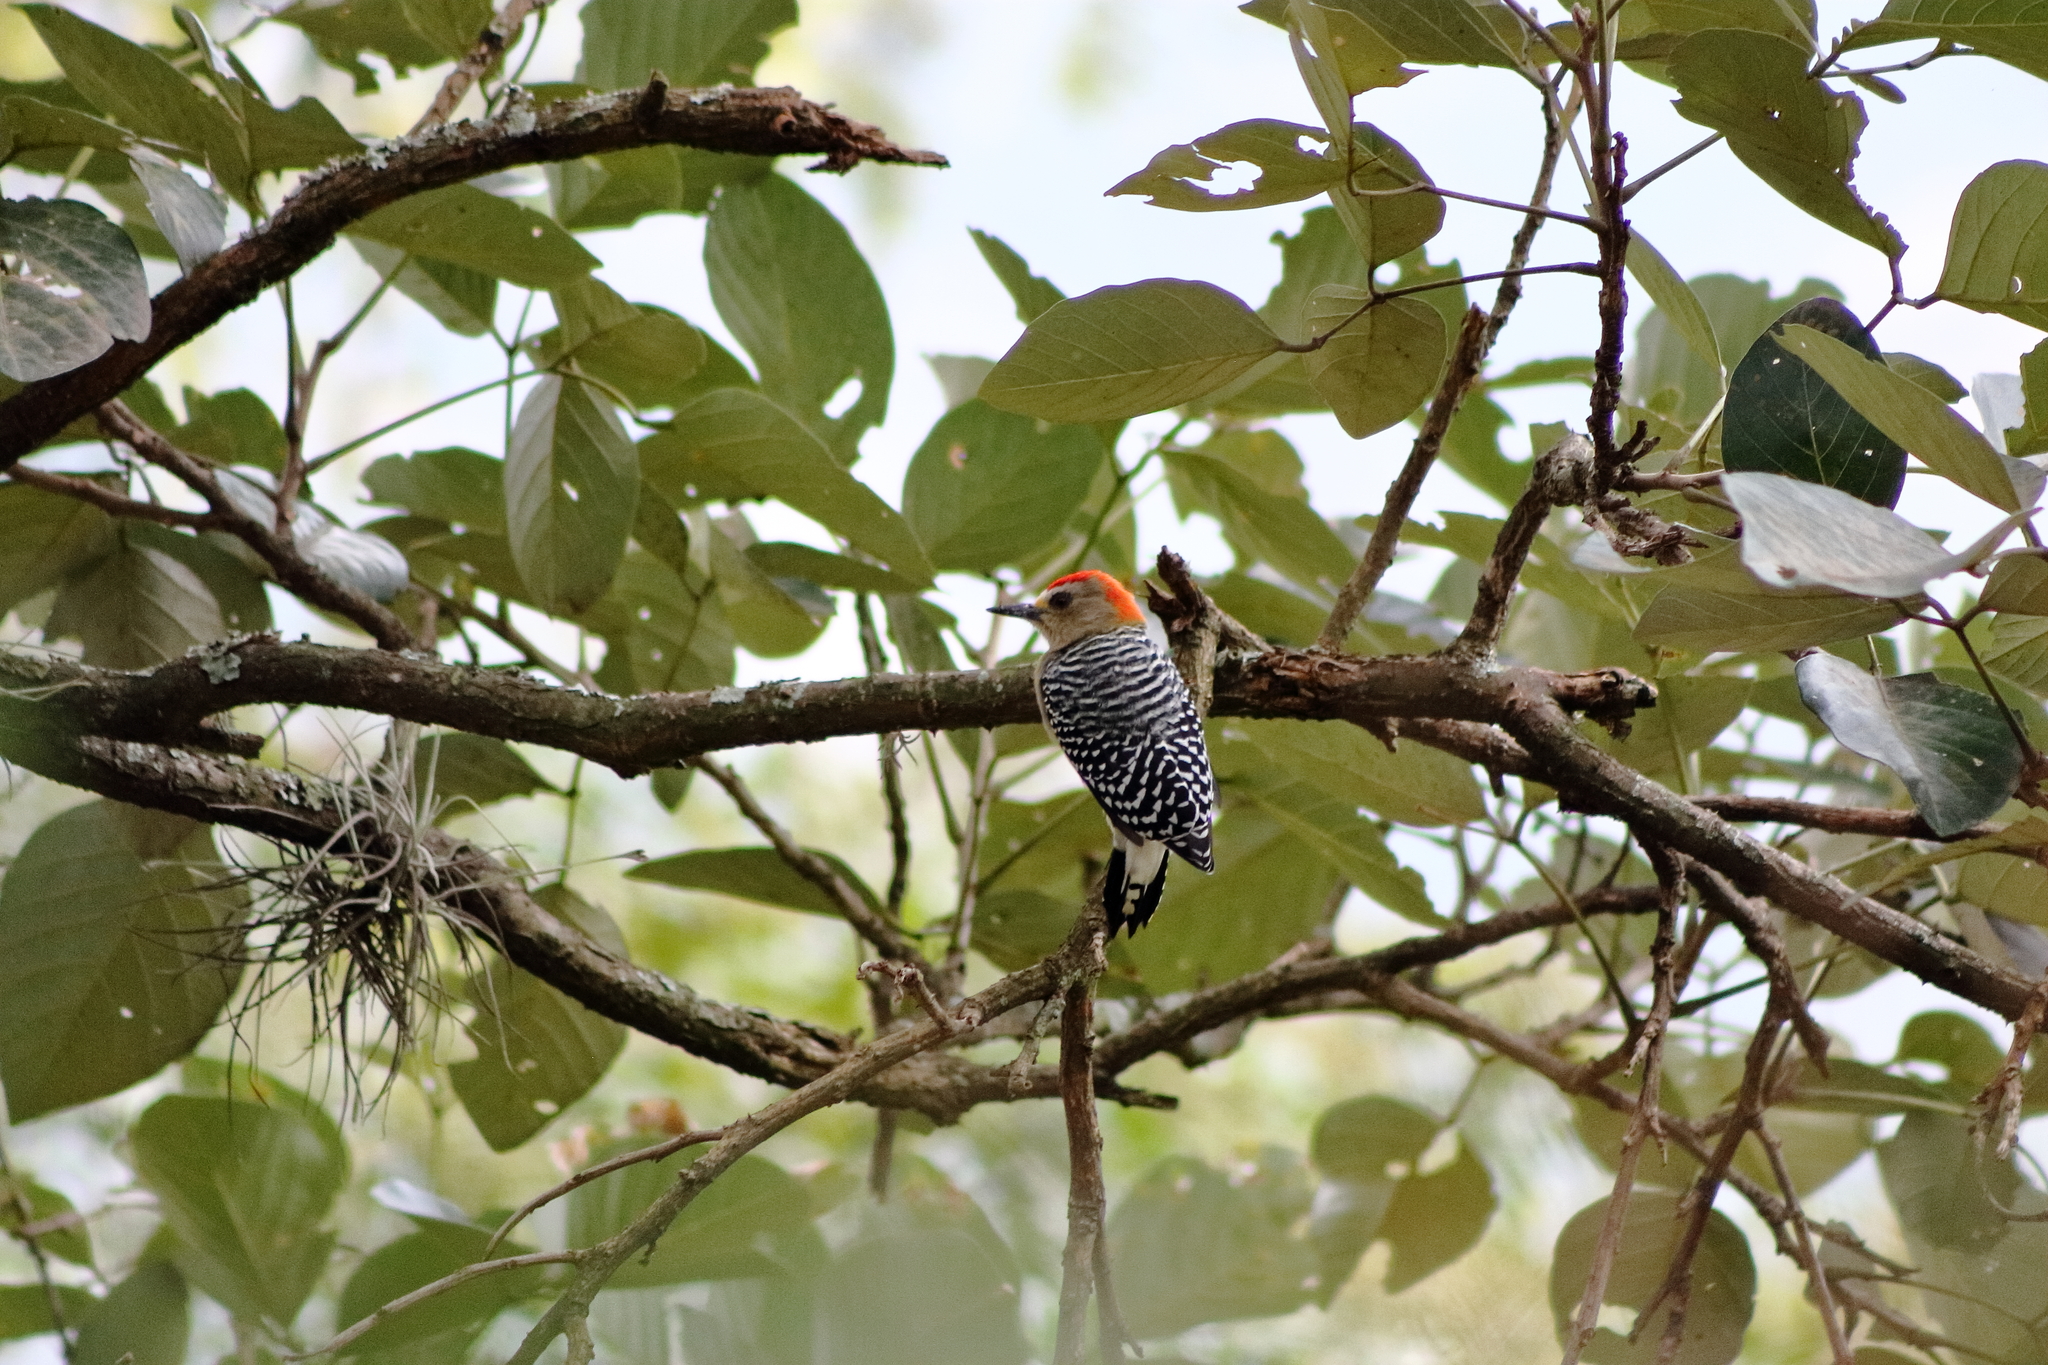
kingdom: Animalia
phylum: Chordata
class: Aves
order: Piciformes
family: Picidae
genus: Melanerpes
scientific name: Melanerpes rubricapillus
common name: Red-crowned woodpecker
